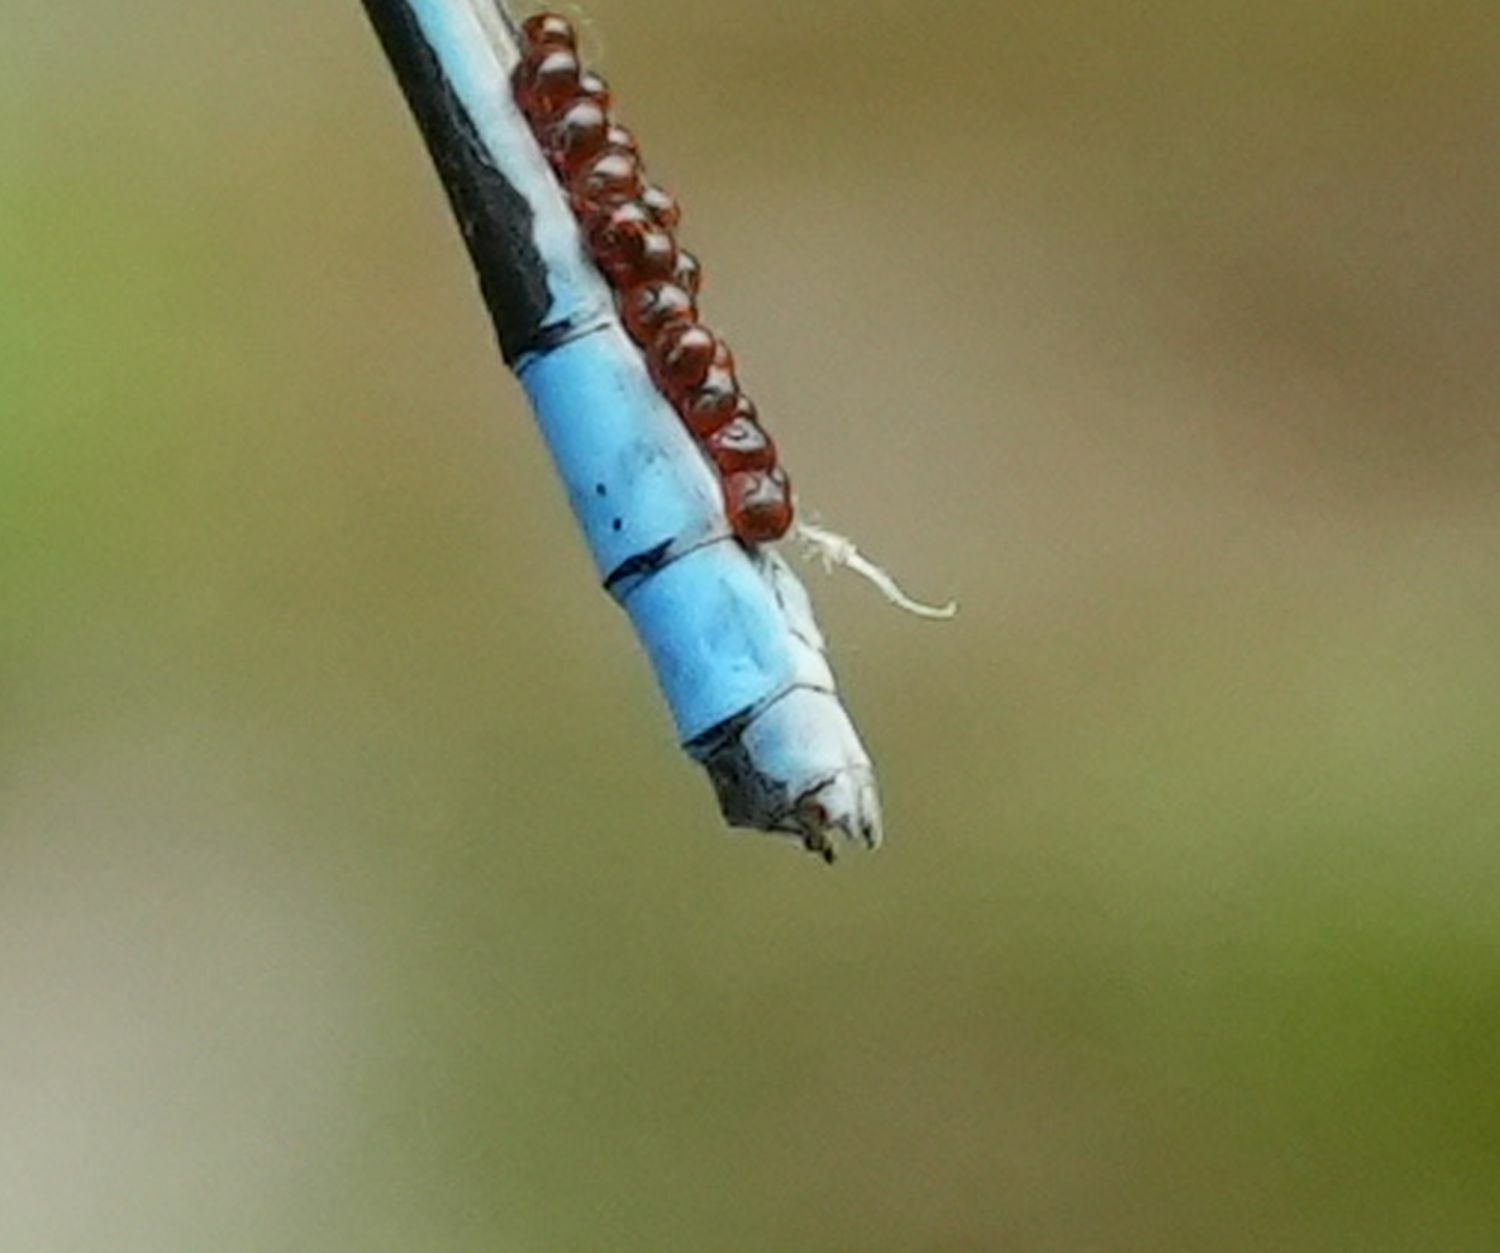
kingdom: Animalia
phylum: Arthropoda
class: Insecta
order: Odonata
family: Coenagrionidae
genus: Enallagma
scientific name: Enallagma hageni
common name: Hagen's bluet
